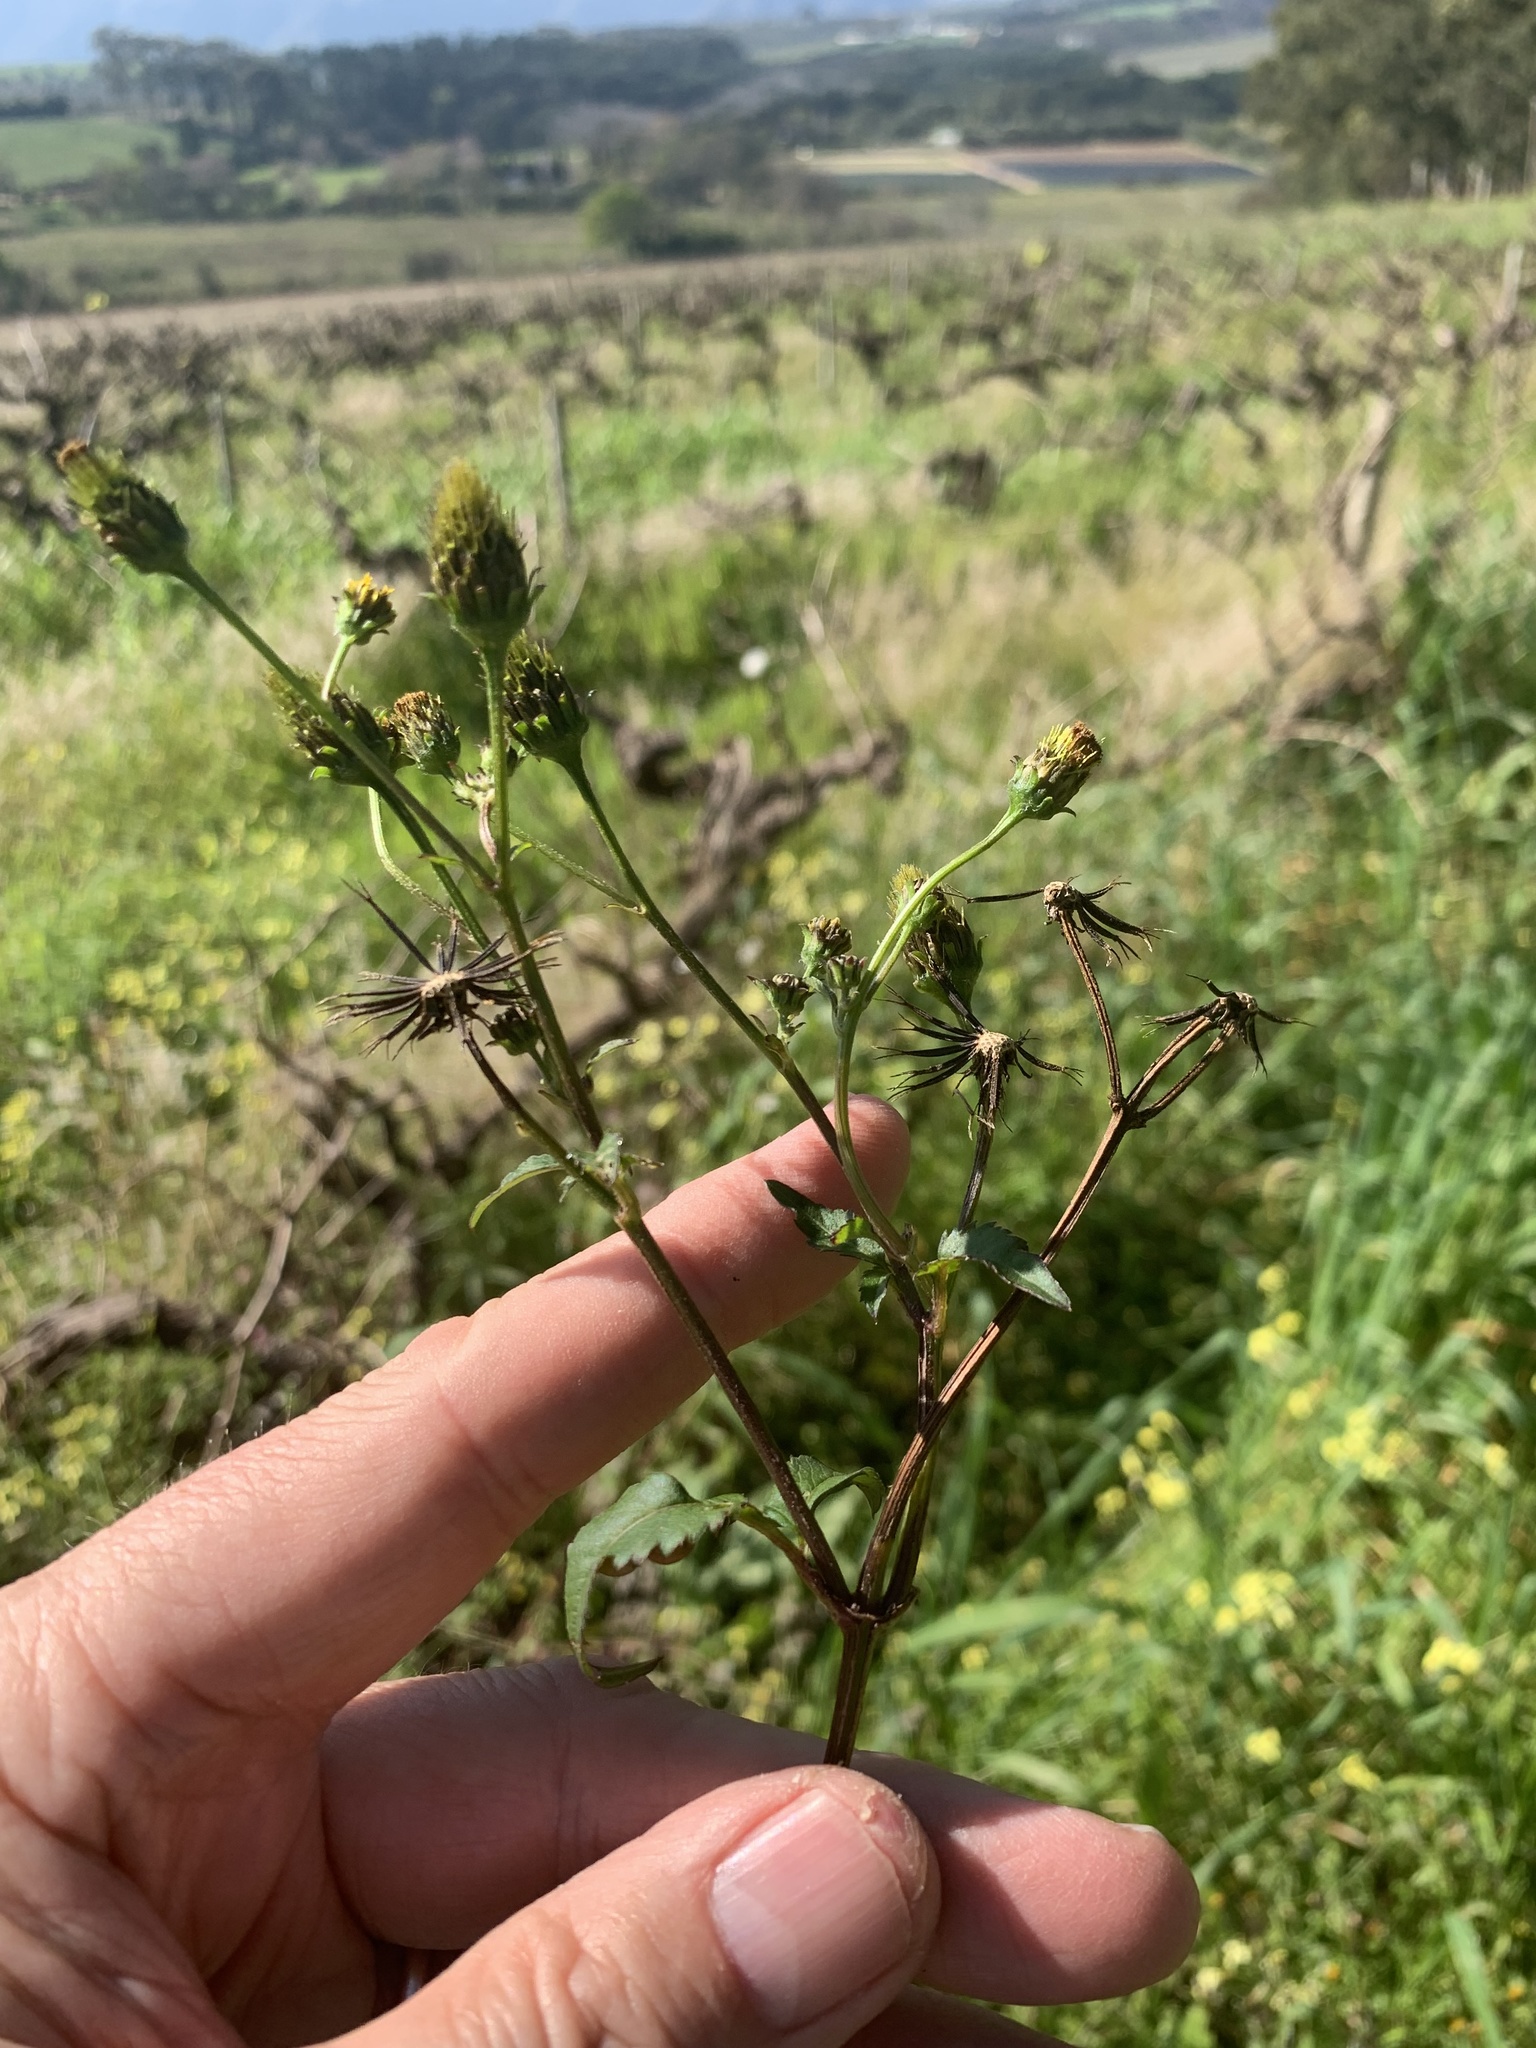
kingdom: Plantae
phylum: Tracheophyta
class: Magnoliopsida
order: Asterales
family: Asteraceae
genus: Bidens
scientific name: Bidens pilosa
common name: Black-jack
